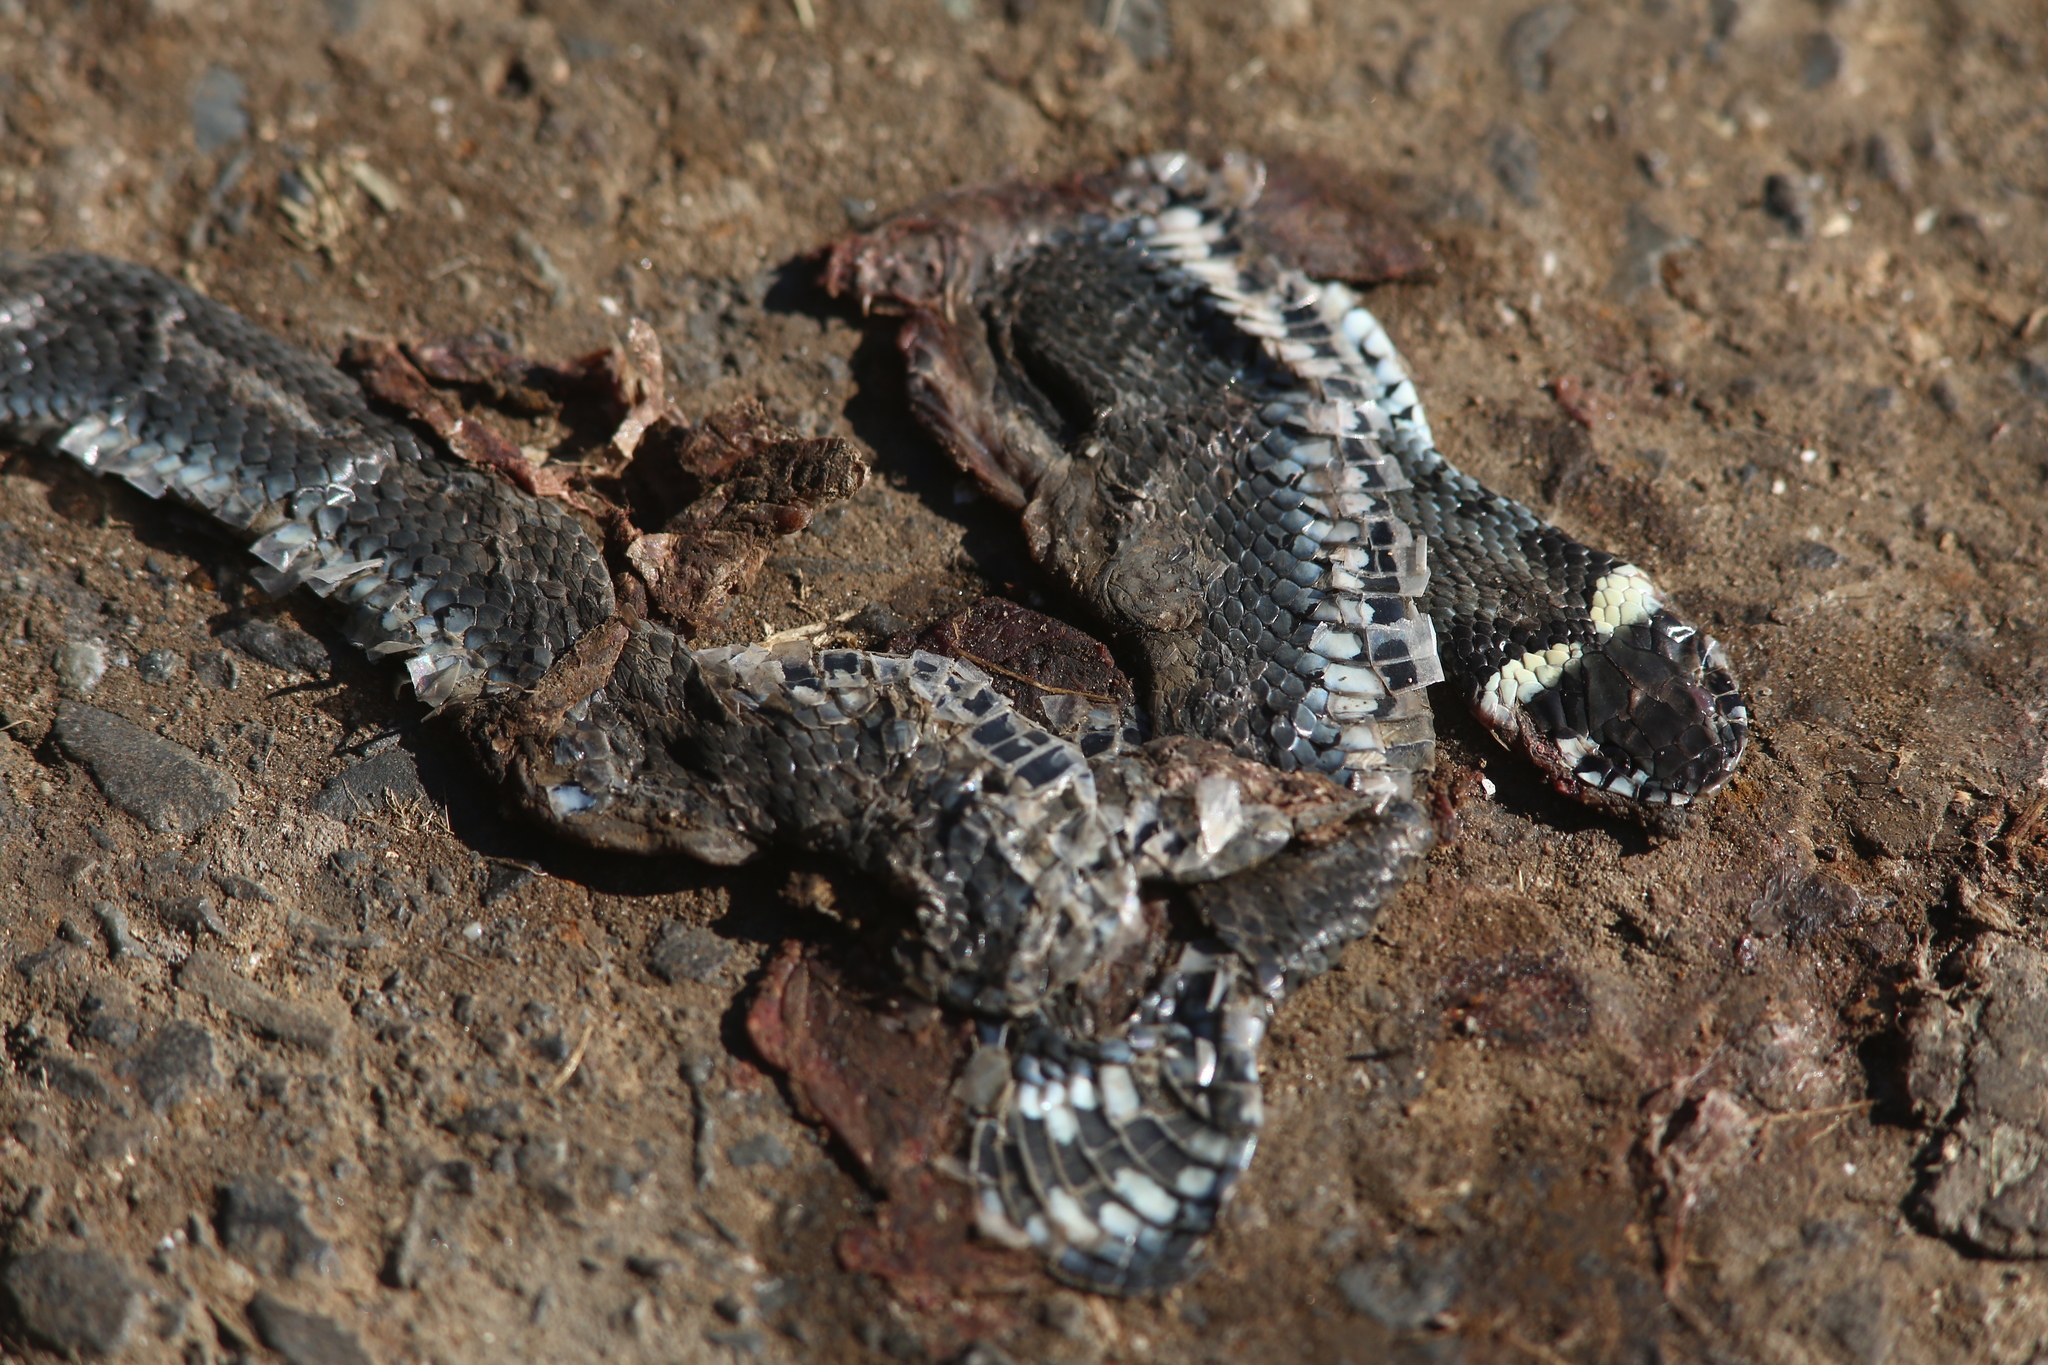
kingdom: Animalia
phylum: Chordata
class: Squamata
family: Colubridae
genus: Natrix
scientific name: Natrix natrix
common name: Grass snake
